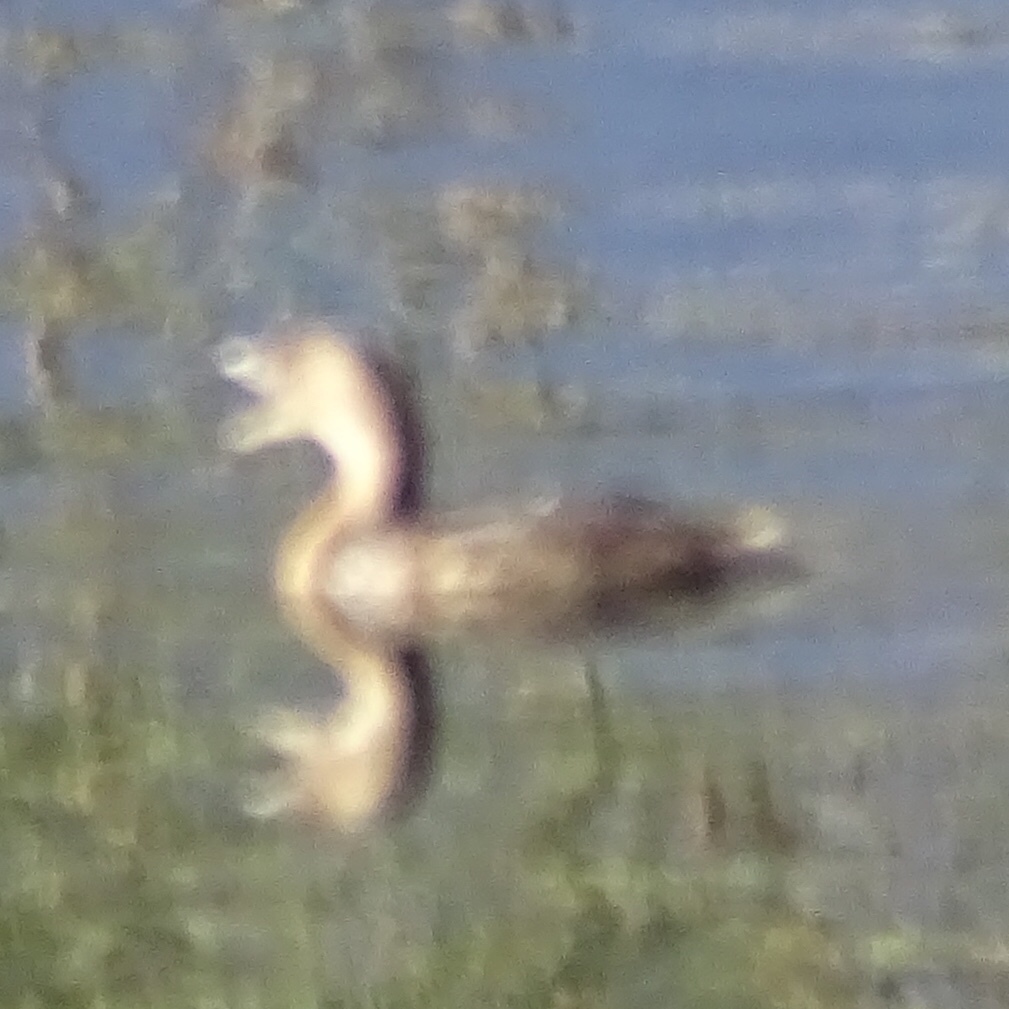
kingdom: Animalia
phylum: Chordata
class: Aves
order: Podicipediformes
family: Podicipedidae
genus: Podilymbus
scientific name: Podilymbus podiceps
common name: Pied-billed grebe
